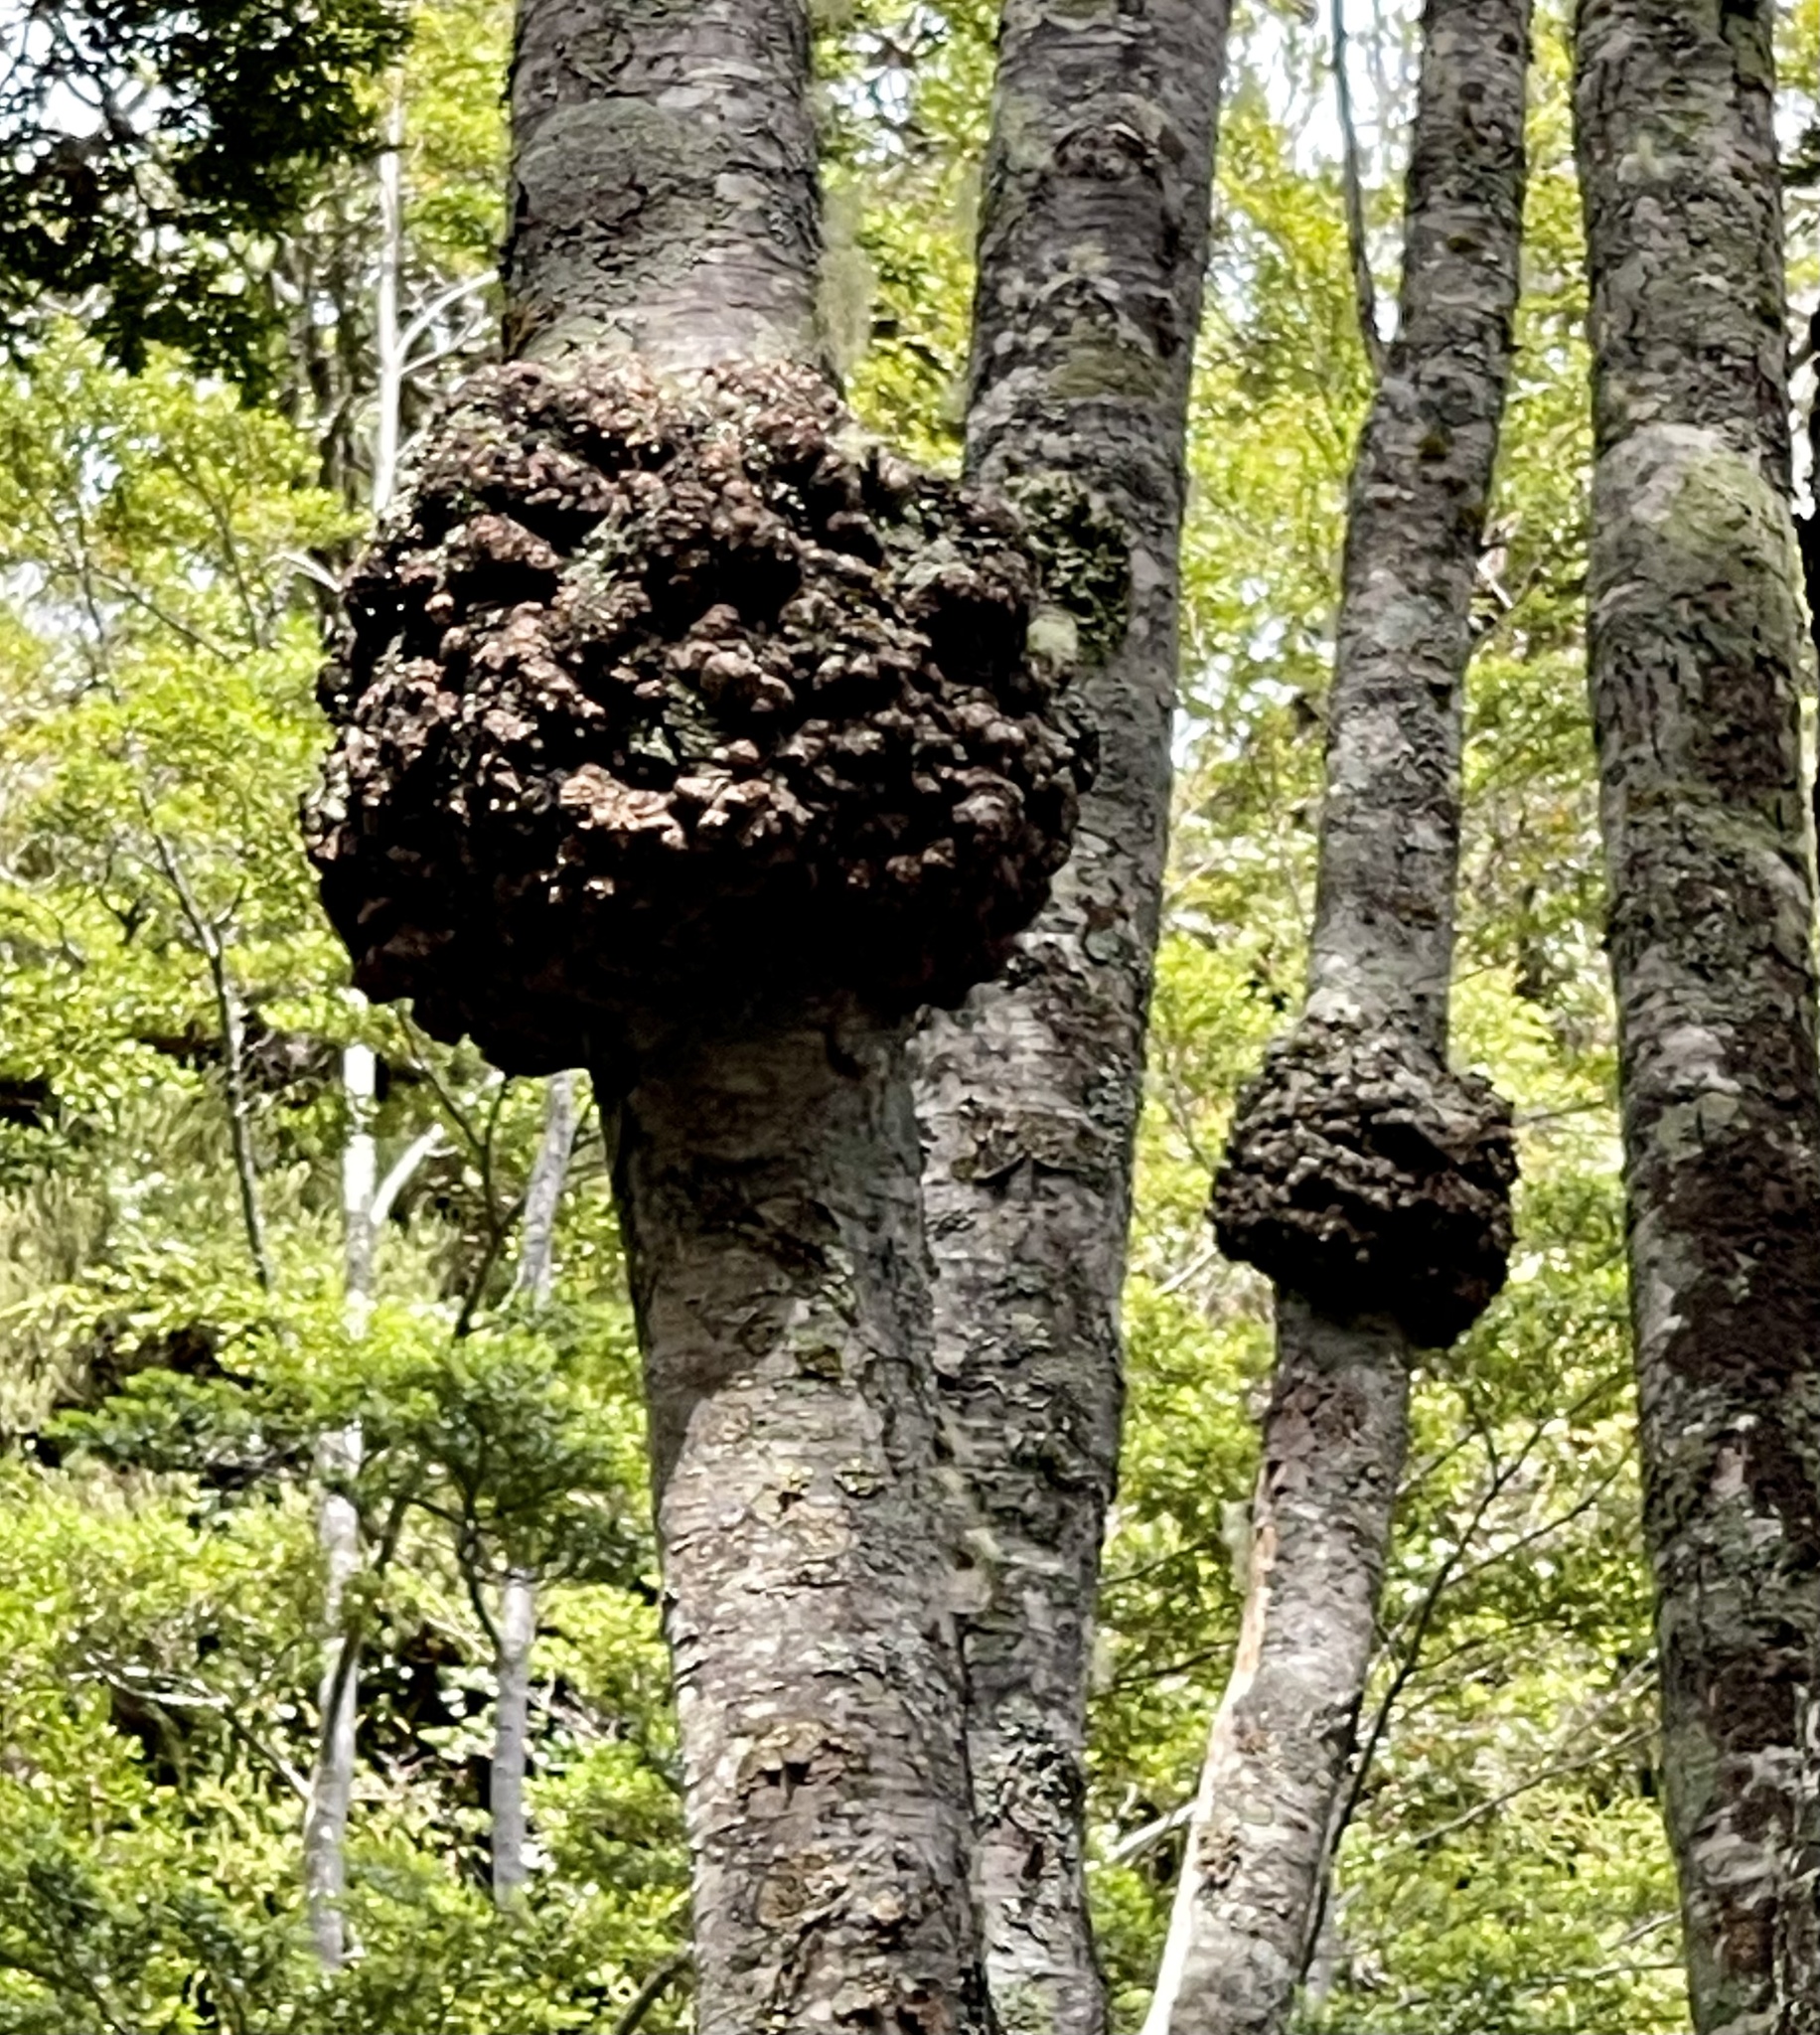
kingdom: Fungi
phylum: Ascomycota
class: Leotiomycetes
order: Cyttariales
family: Cyttariaceae
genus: Cyttaria
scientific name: Cyttaria hariotii
